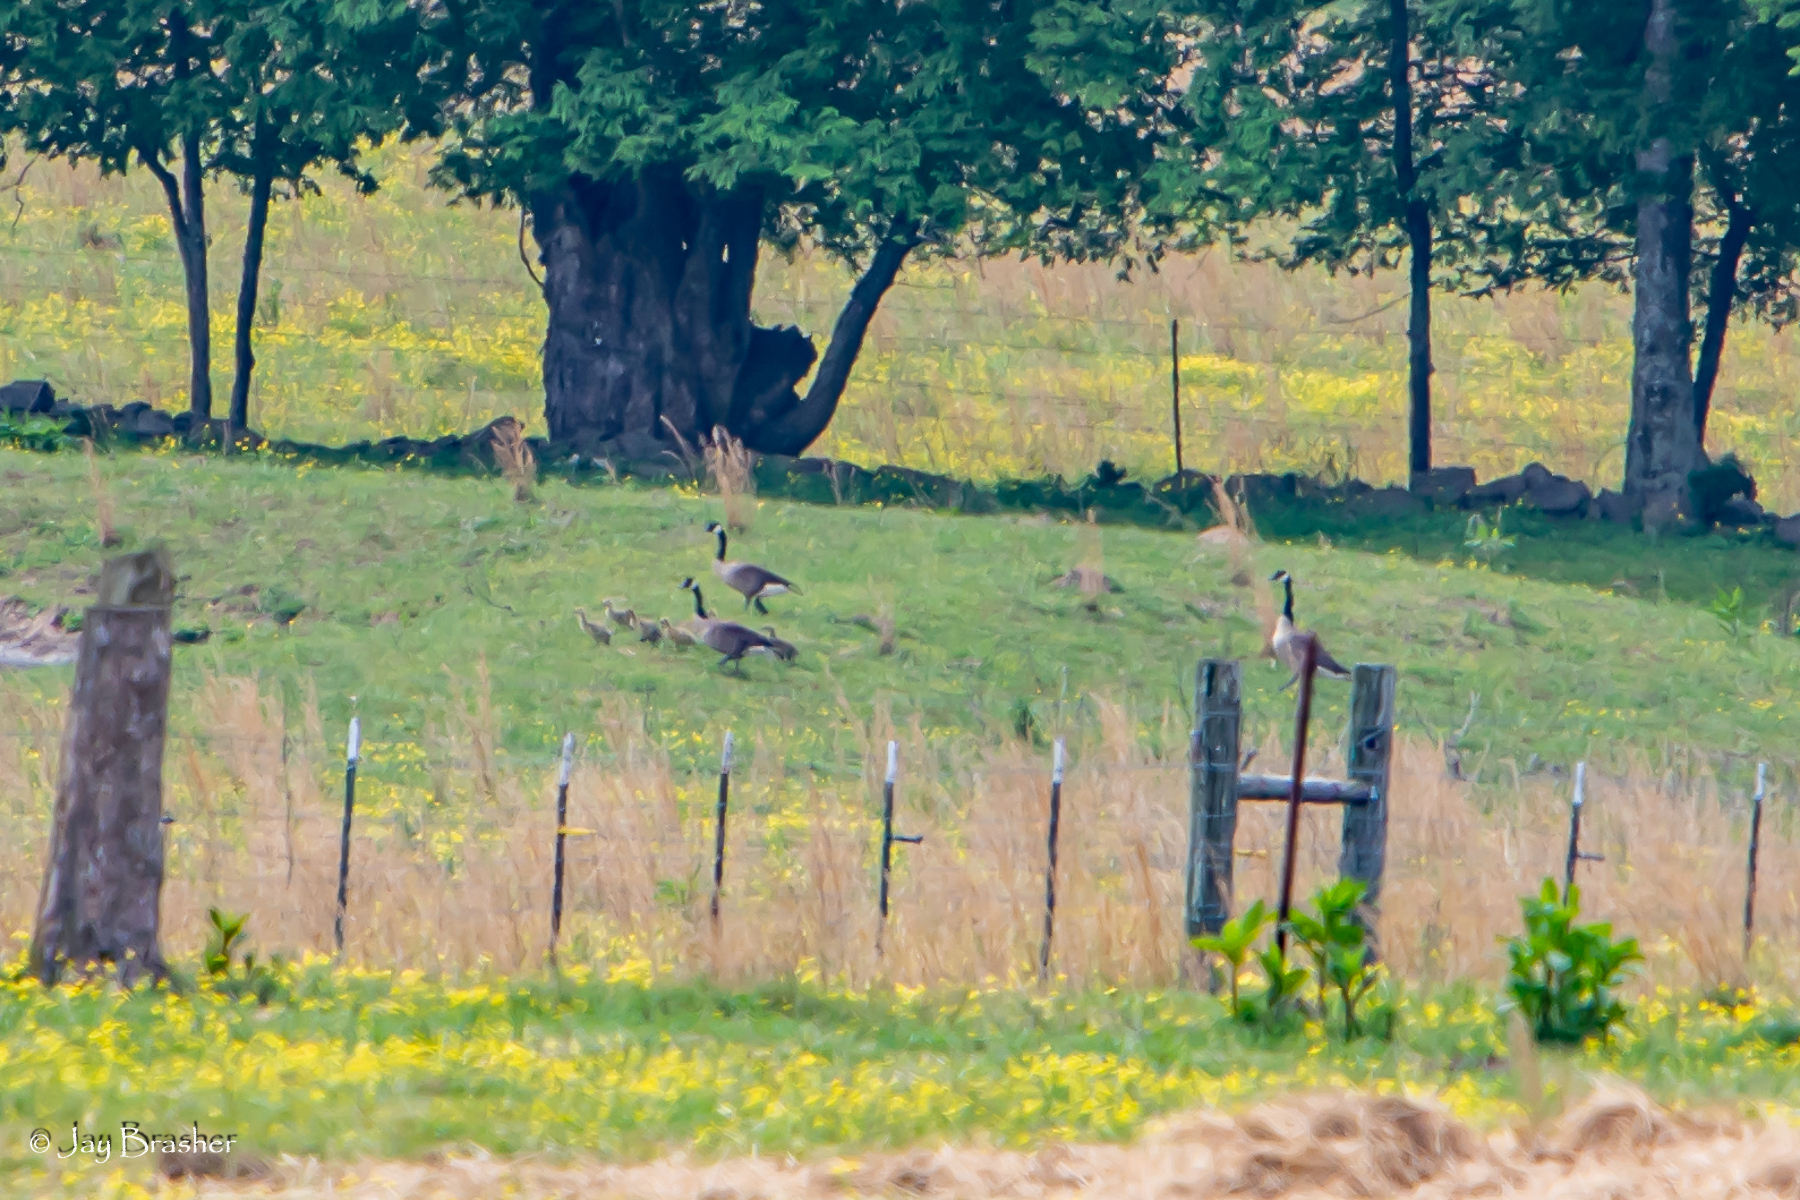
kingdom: Animalia
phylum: Chordata
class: Aves
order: Anseriformes
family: Anatidae
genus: Branta
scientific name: Branta canadensis
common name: Canada goose
